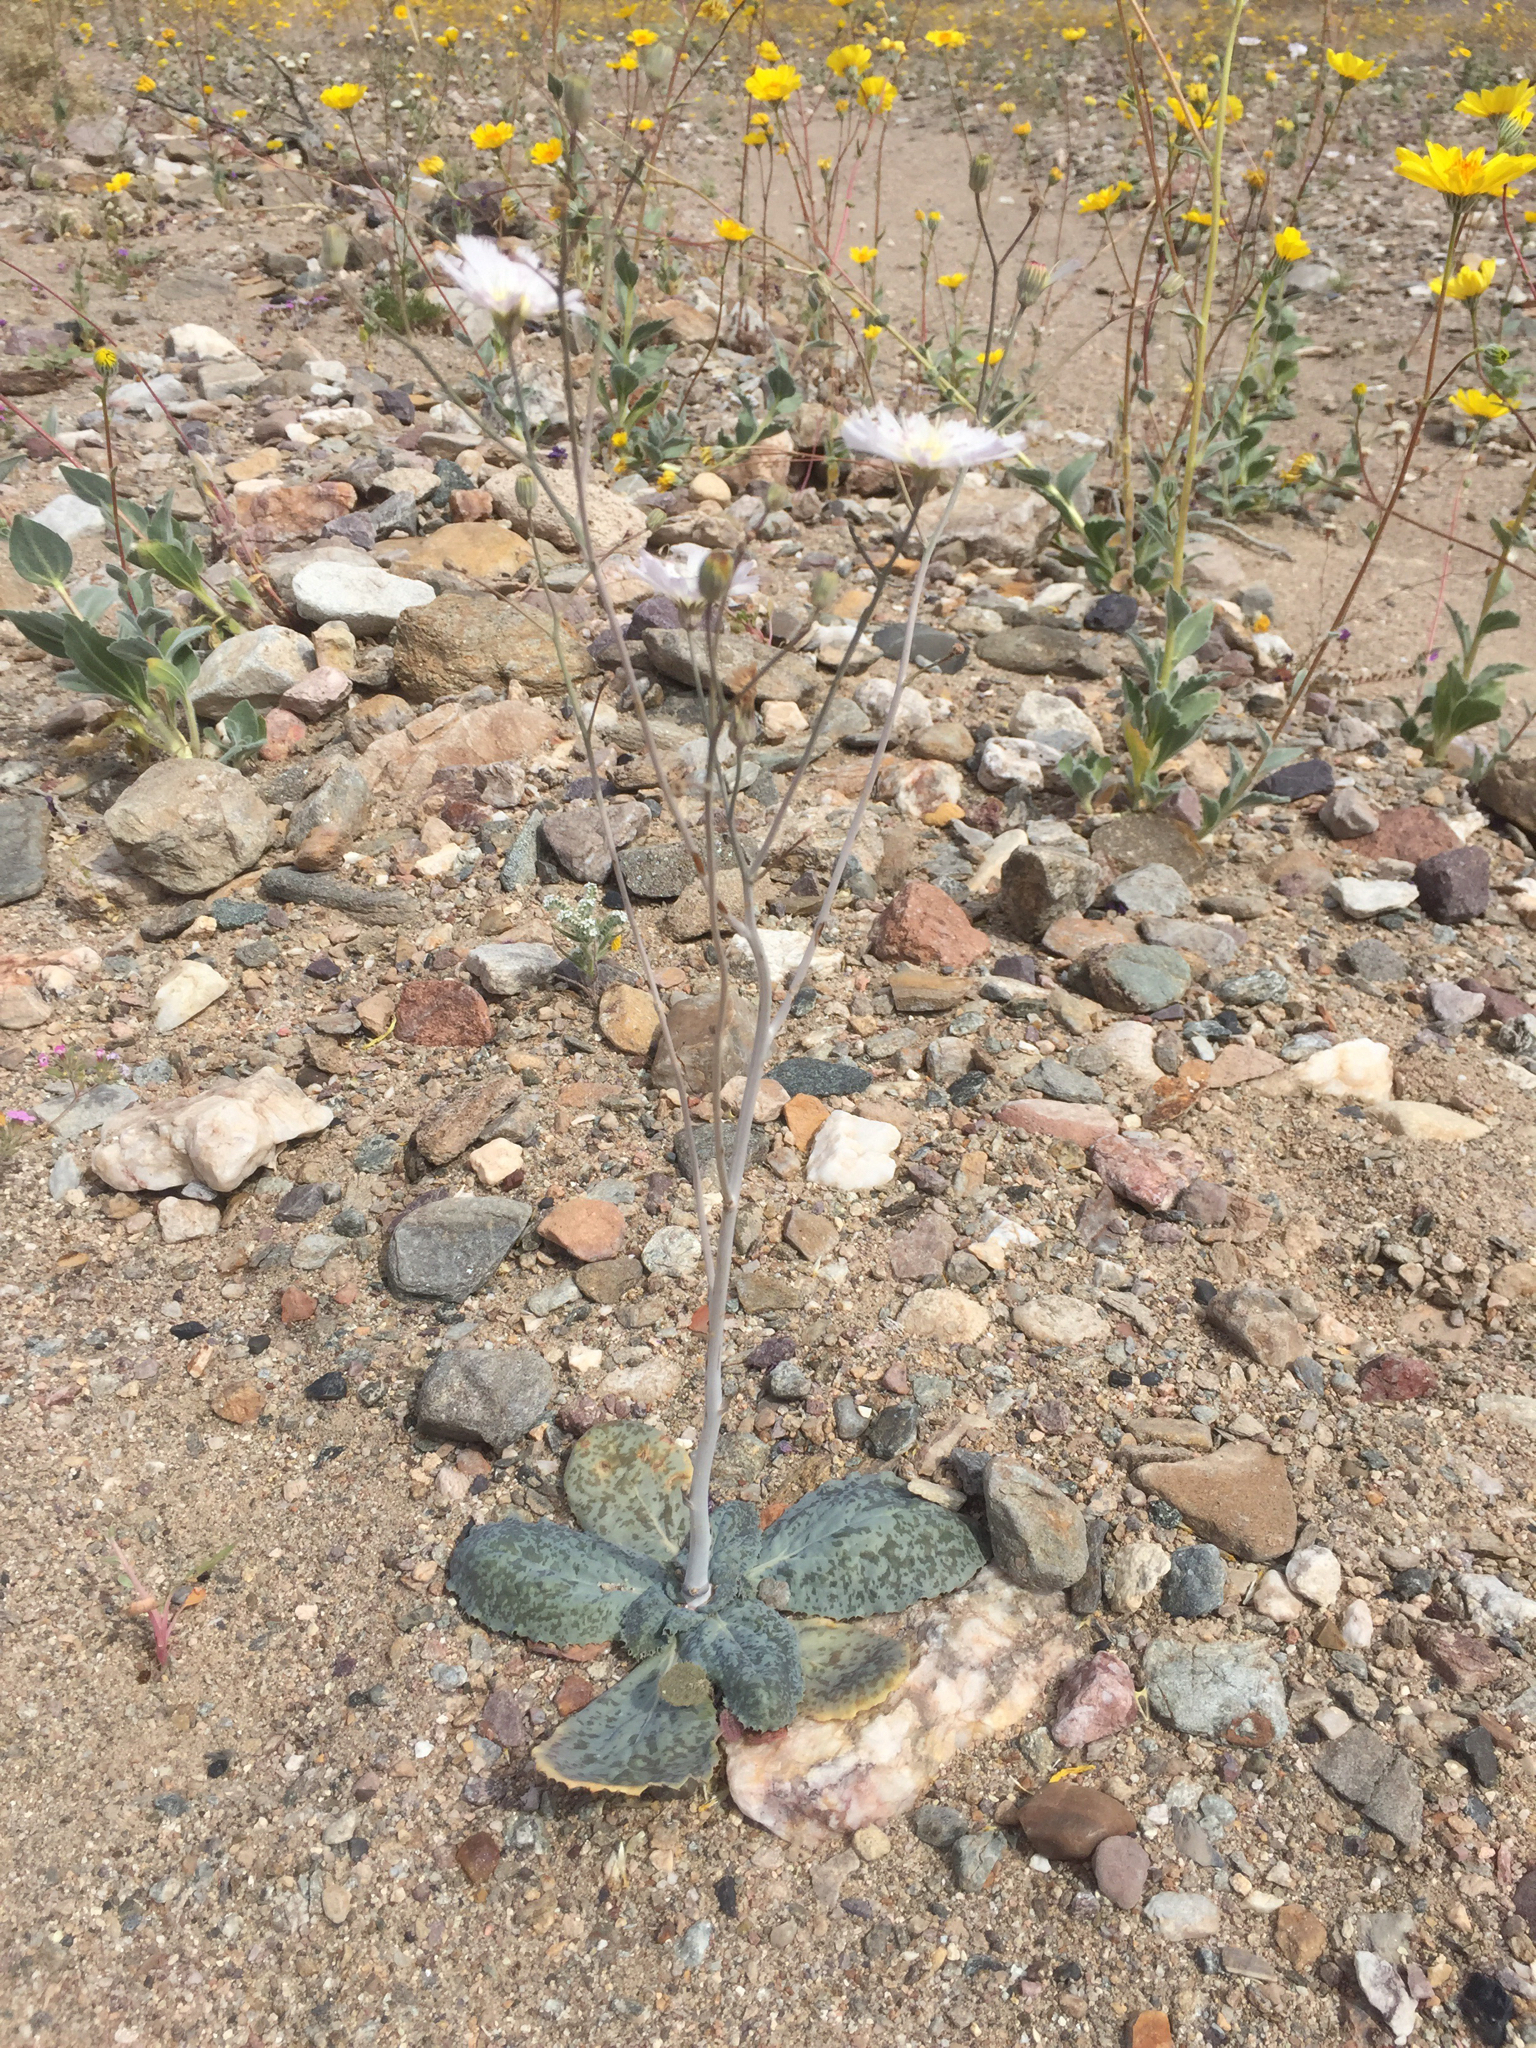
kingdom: Plantae
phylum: Tracheophyta
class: Magnoliopsida
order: Asterales
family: Asteraceae
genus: Atrichoseris
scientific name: Atrichoseris platyphylla
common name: Tobaccoweed
